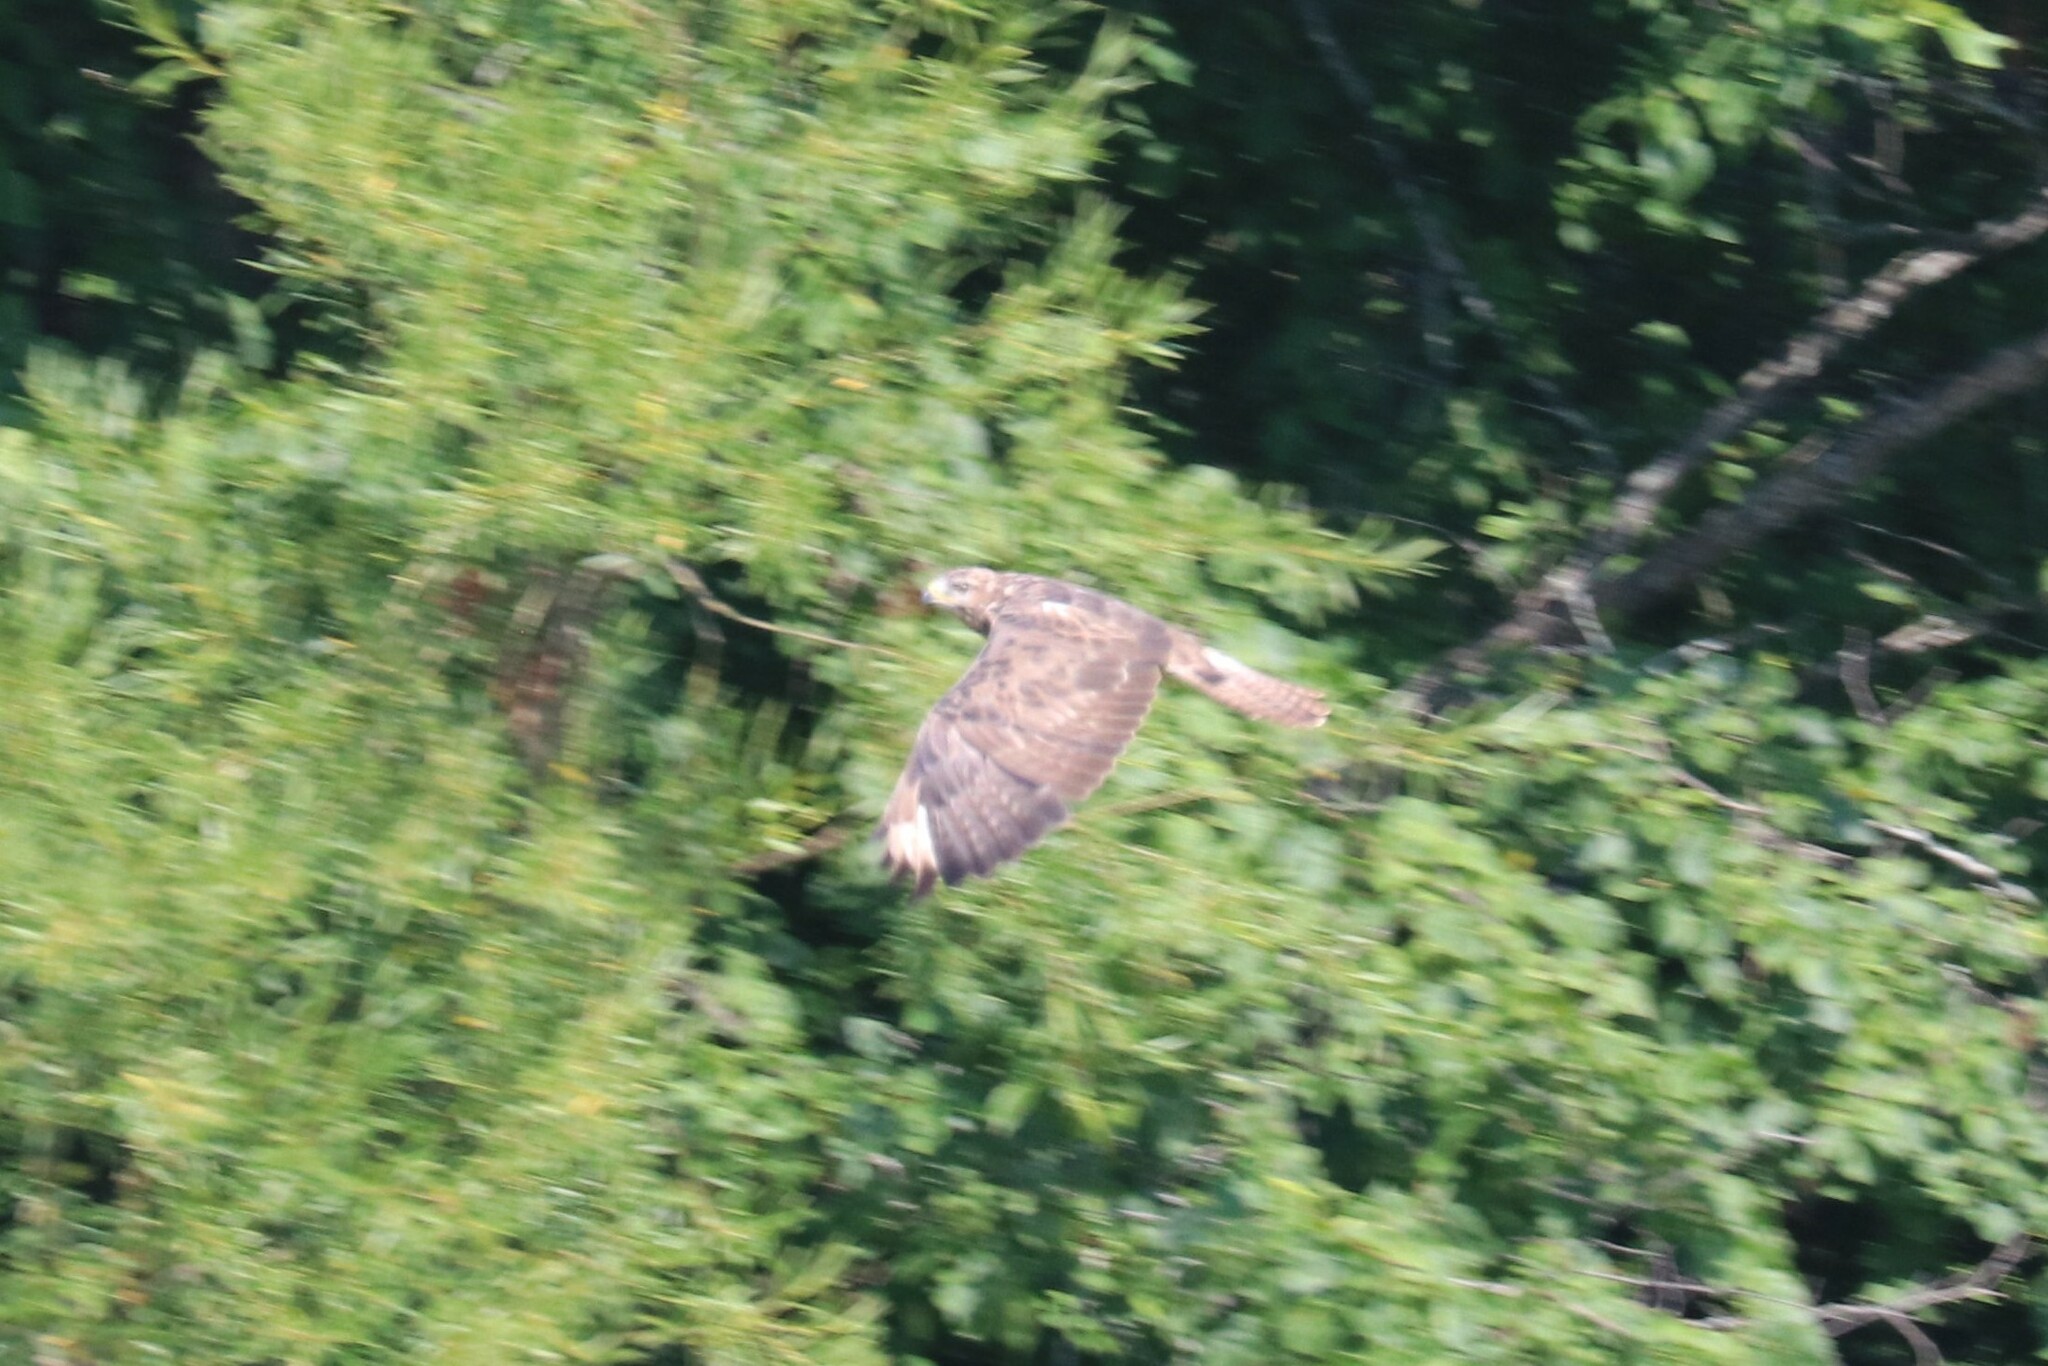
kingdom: Animalia
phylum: Chordata
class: Aves
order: Accipitriformes
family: Accipitridae
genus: Buteo
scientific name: Buteo buteo
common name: Common buzzard
